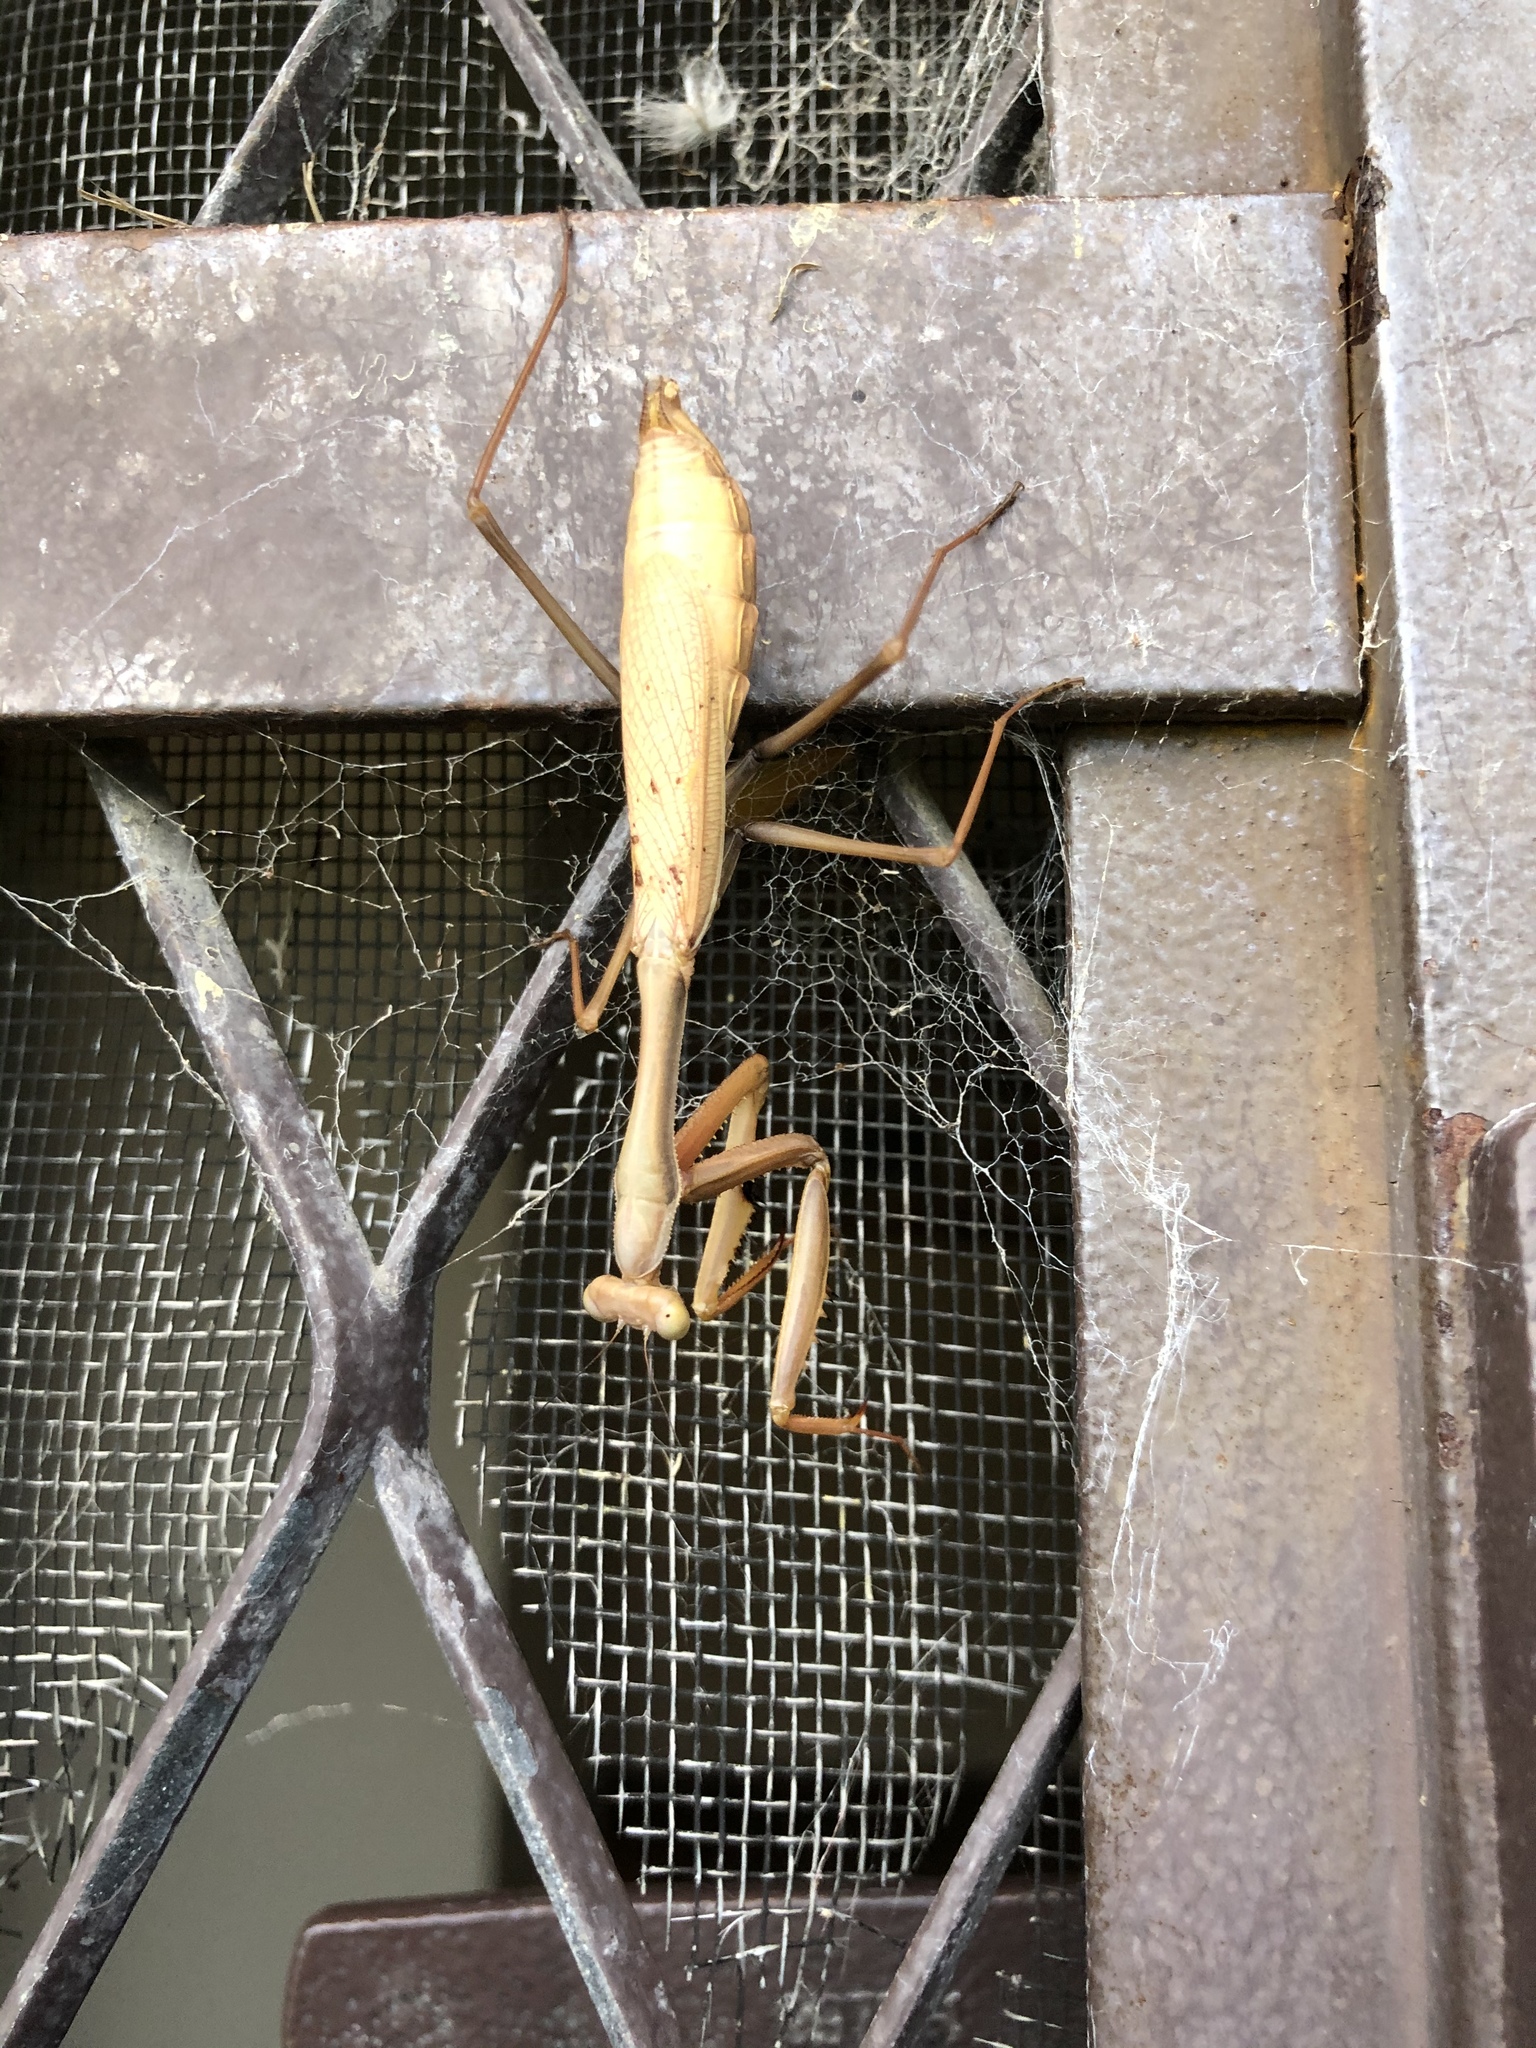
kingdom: Animalia
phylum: Arthropoda
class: Insecta
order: Mantodea
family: Mantidae
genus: Pseudomantis
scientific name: Pseudomantis albofimbriata
